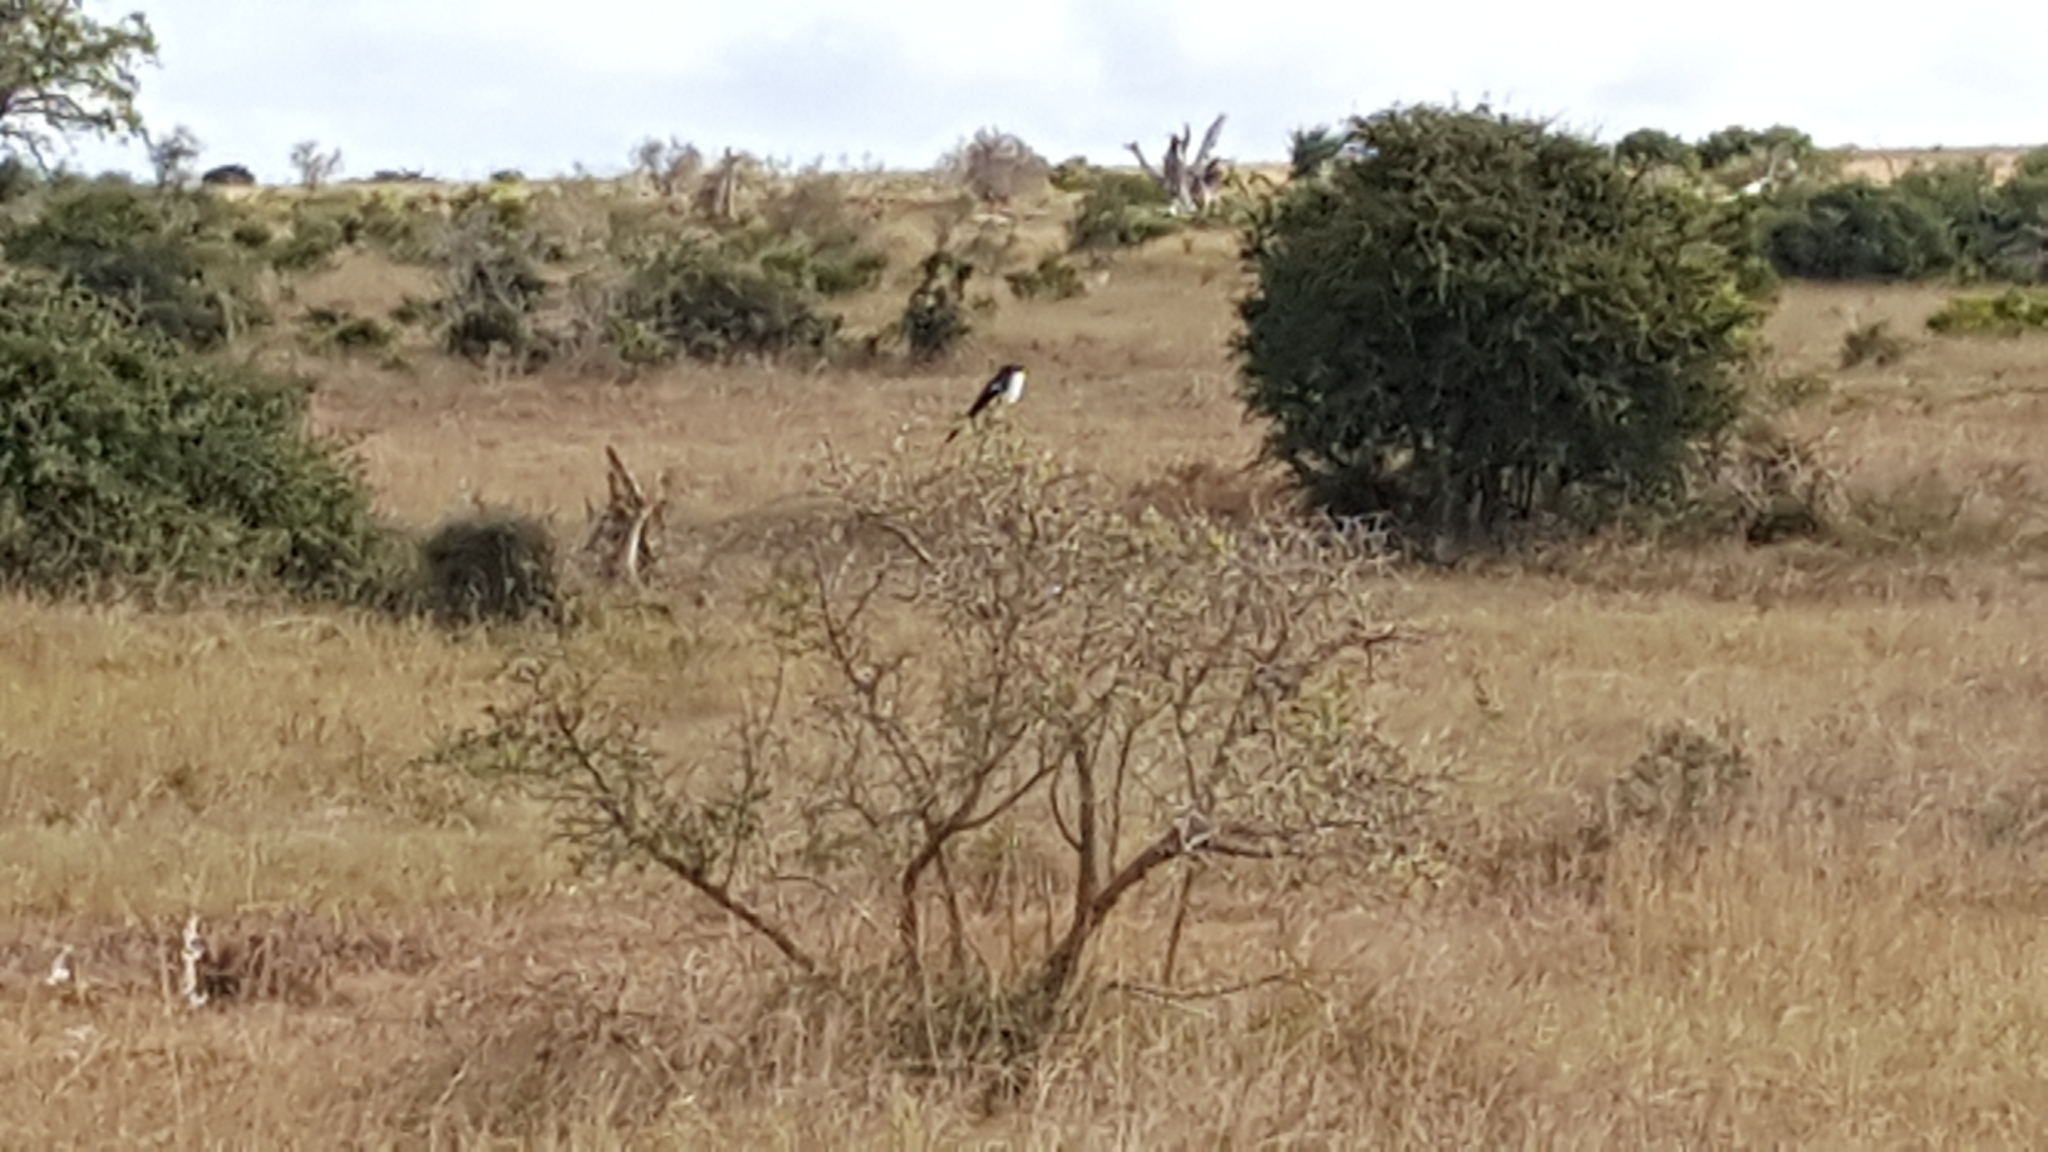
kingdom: Animalia
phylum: Chordata
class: Aves
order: Passeriformes
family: Laniidae
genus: Lanius
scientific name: Lanius collaris
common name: Southern fiscal
